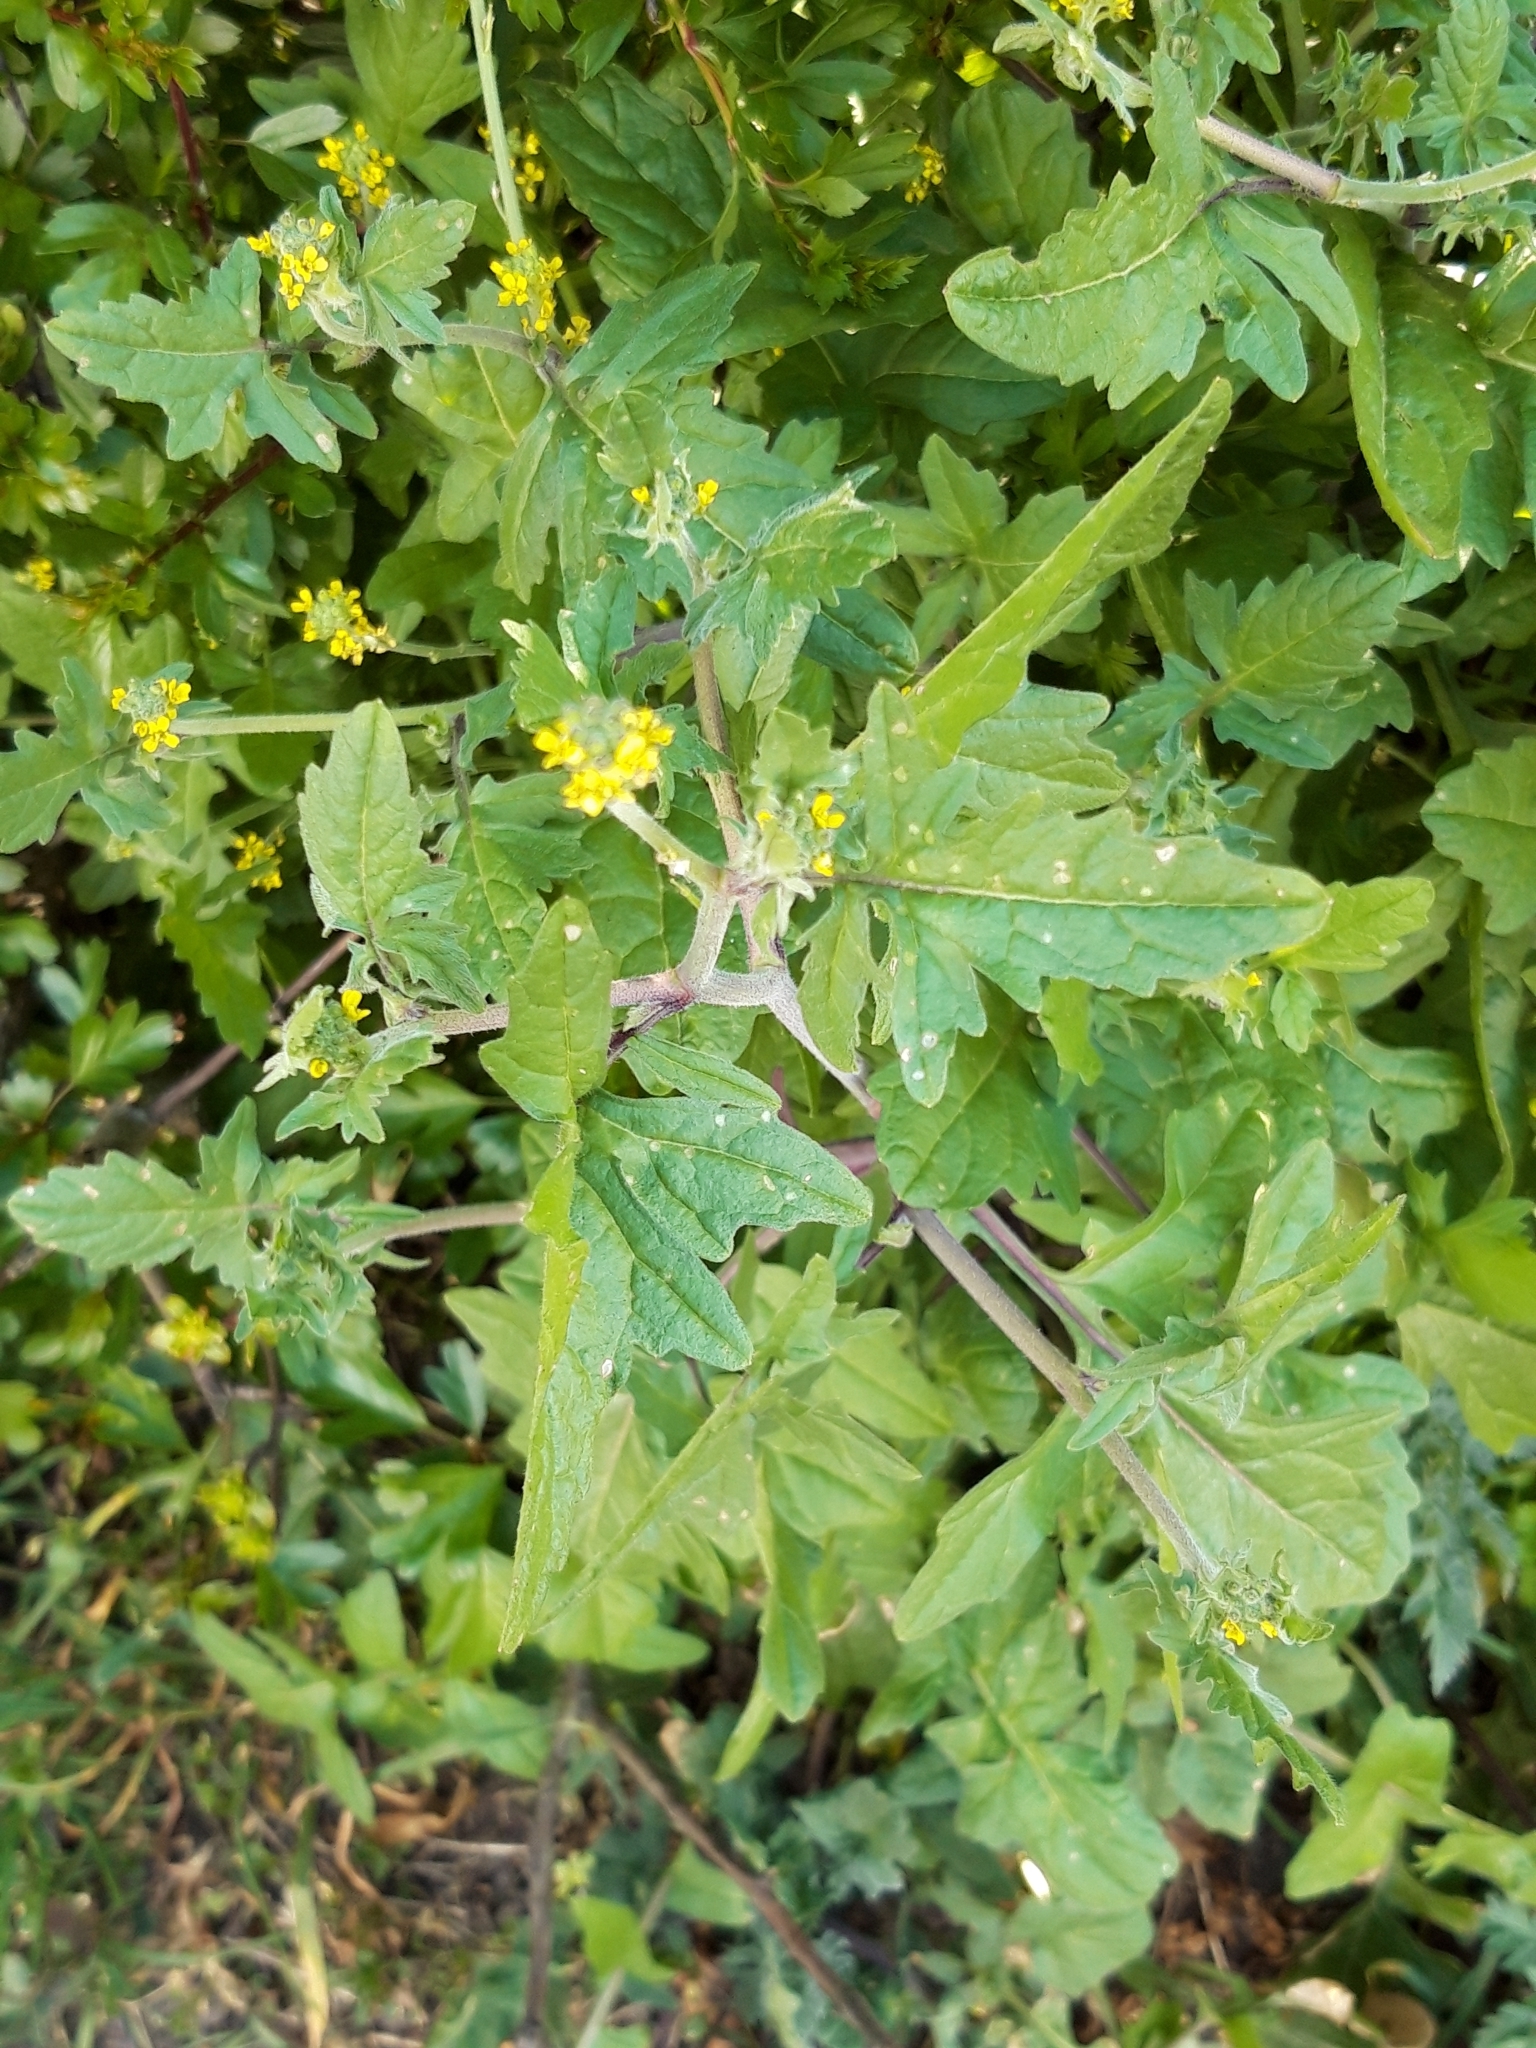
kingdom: Plantae
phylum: Tracheophyta
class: Magnoliopsida
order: Brassicales
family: Brassicaceae
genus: Sisymbrium
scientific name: Sisymbrium officinale
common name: Hedge mustard
